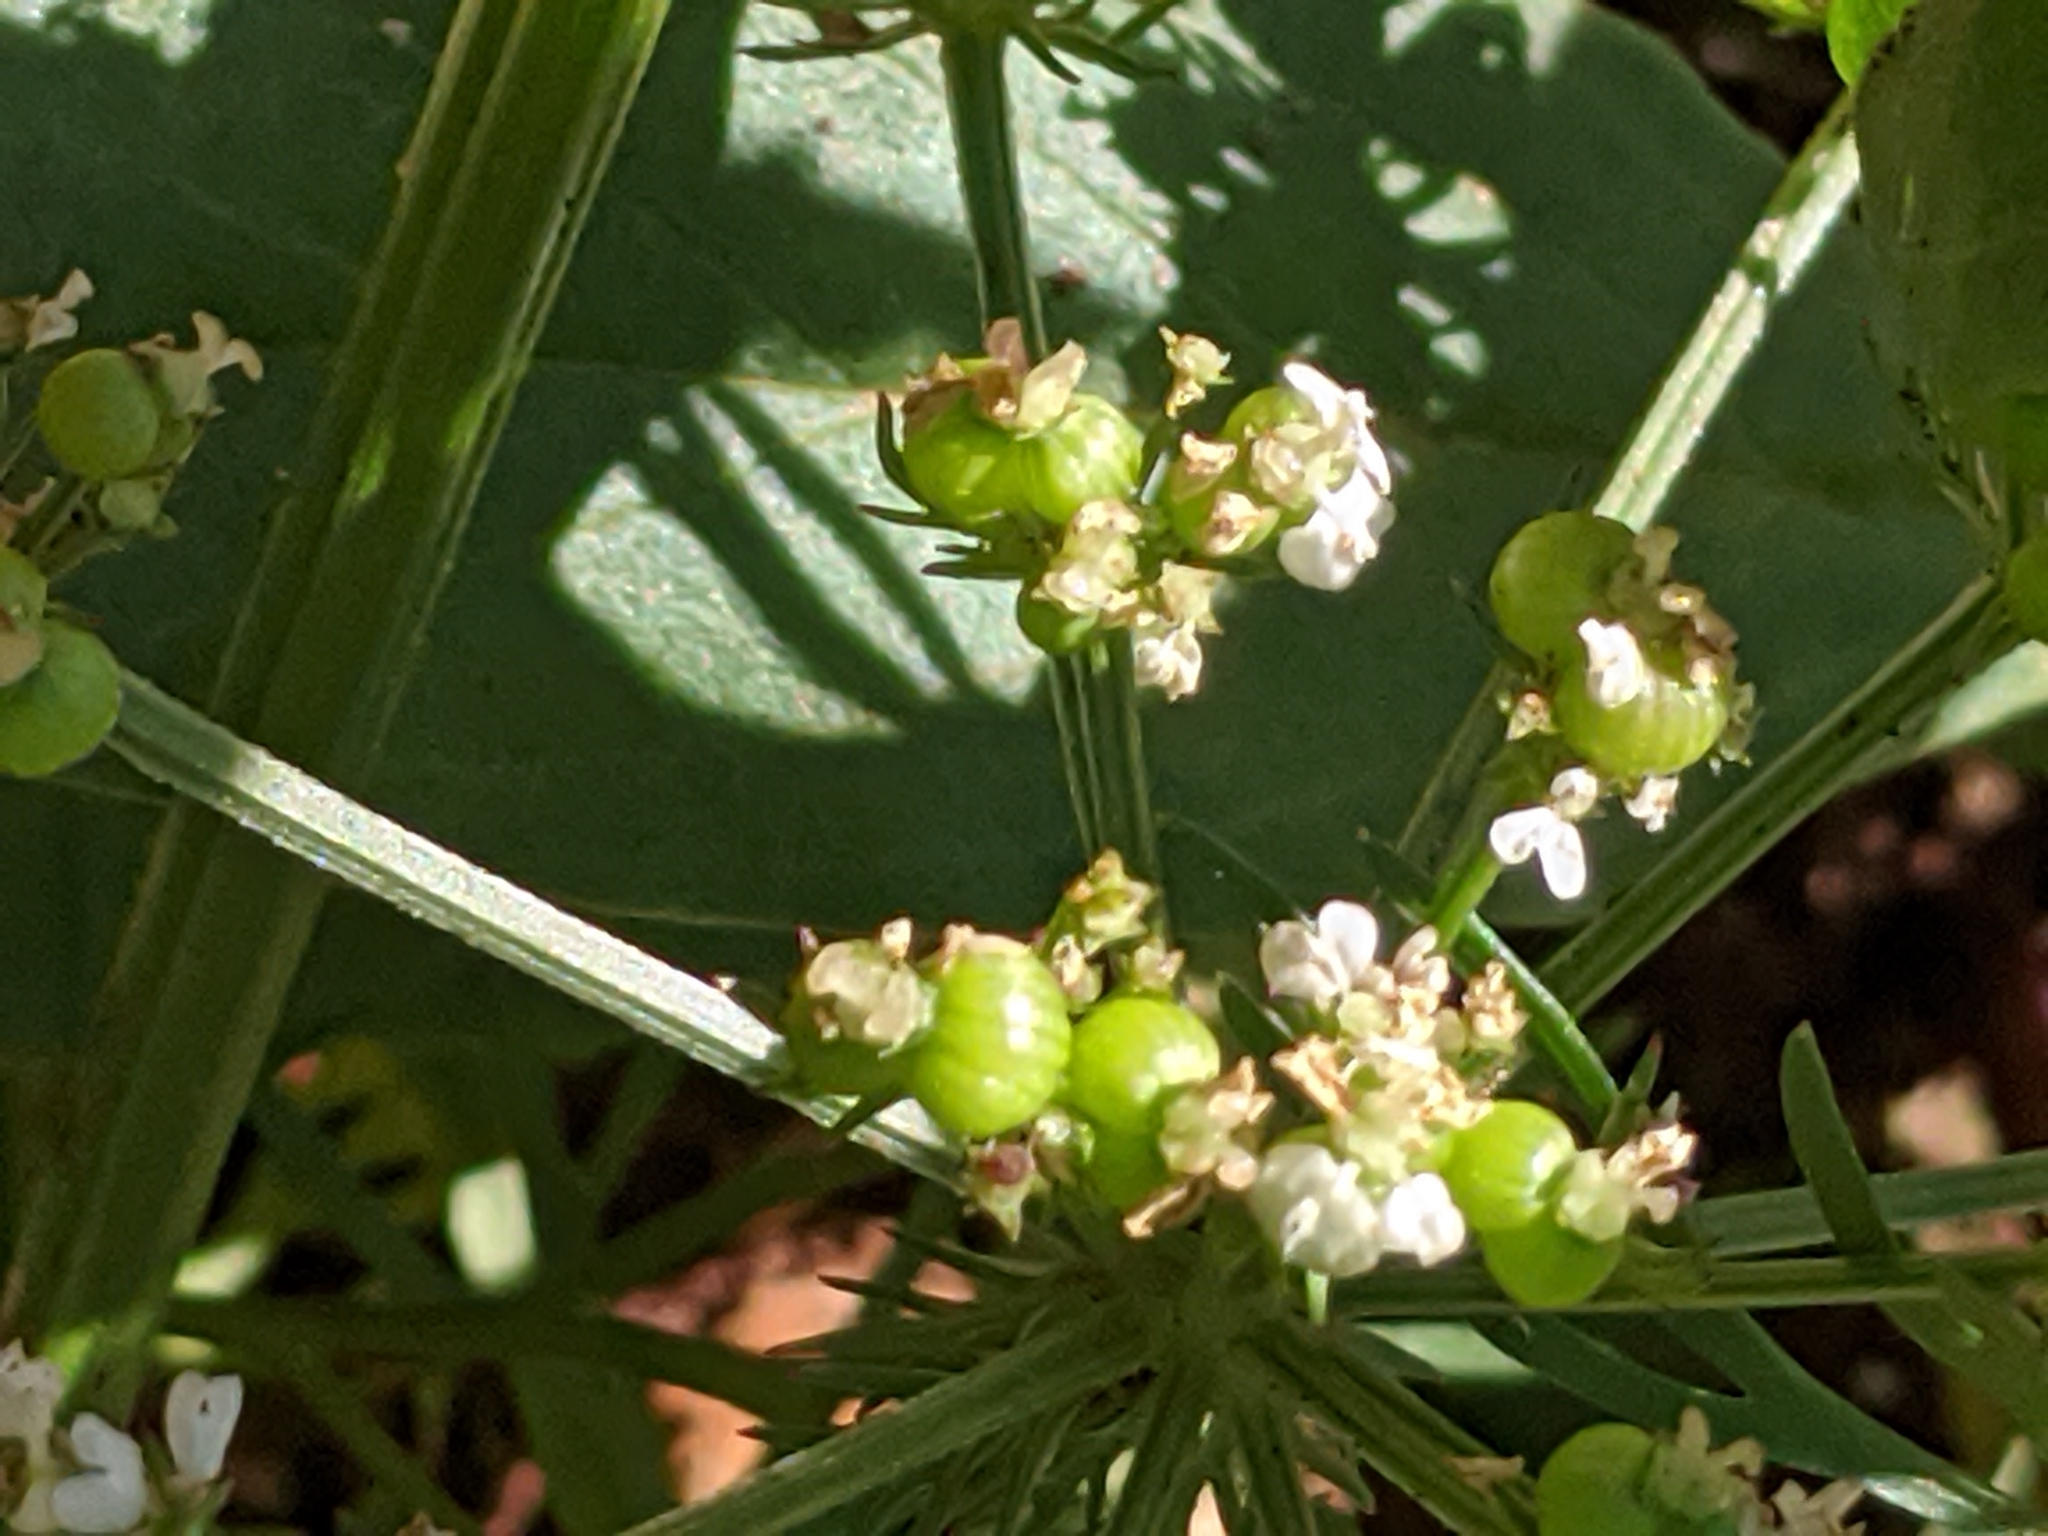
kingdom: Plantae
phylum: Tracheophyta
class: Magnoliopsida
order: Apiales
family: Apiaceae
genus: Atrema
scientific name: Atrema americanum
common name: Prairie-bishop
